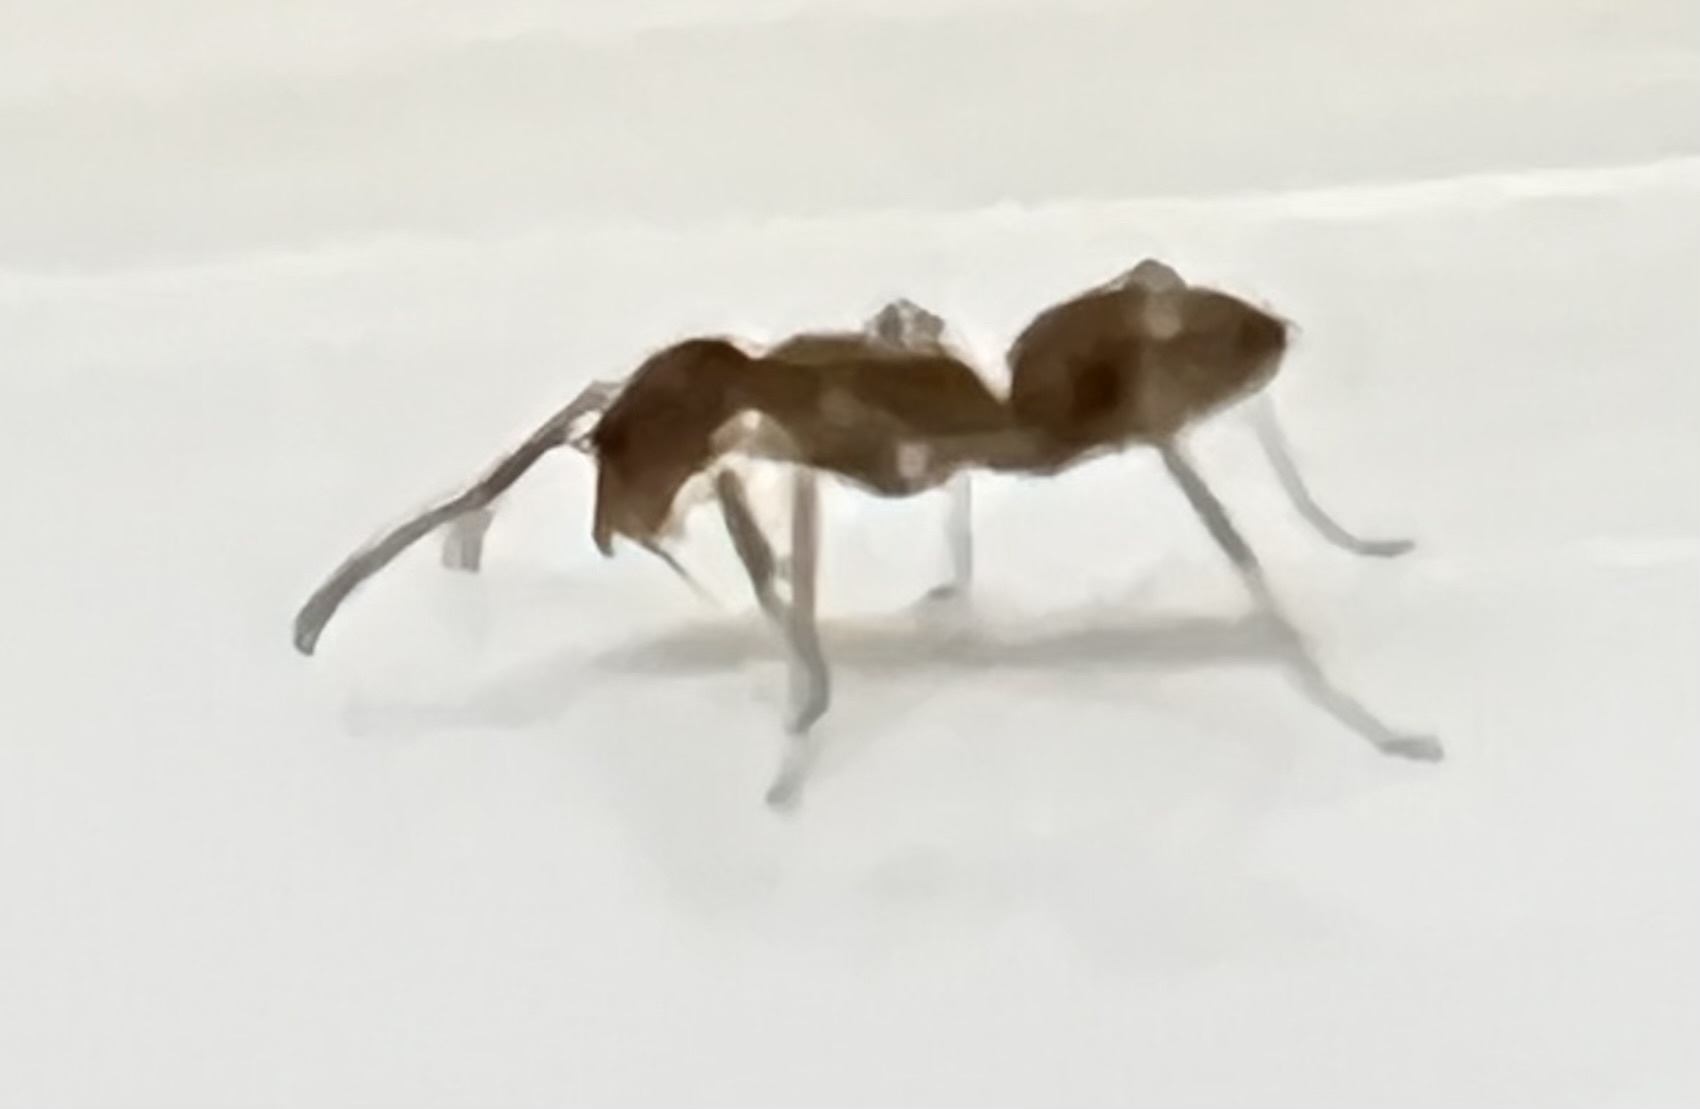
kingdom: Animalia
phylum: Arthropoda
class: Insecta
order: Hymenoptera
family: Formicidae
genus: Linepithema
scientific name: Linepithema humile
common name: Argentine ant
